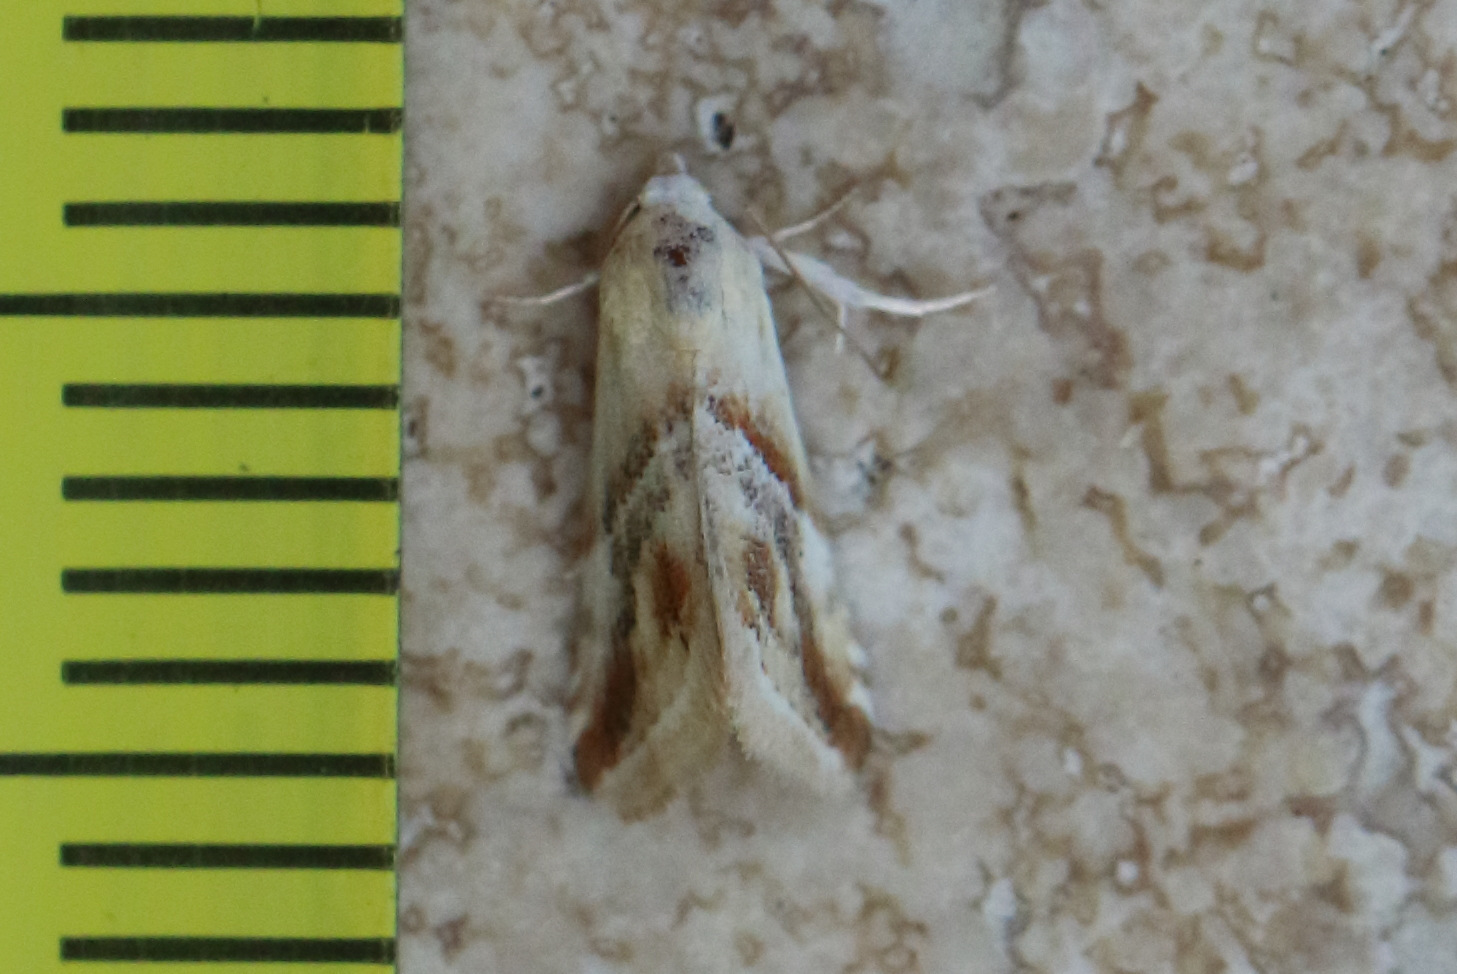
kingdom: Animalia
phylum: Arthropoda
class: Insecta
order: Lepidoptera
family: Noctuidae
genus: Eublemma
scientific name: Eublemma inconspicua
